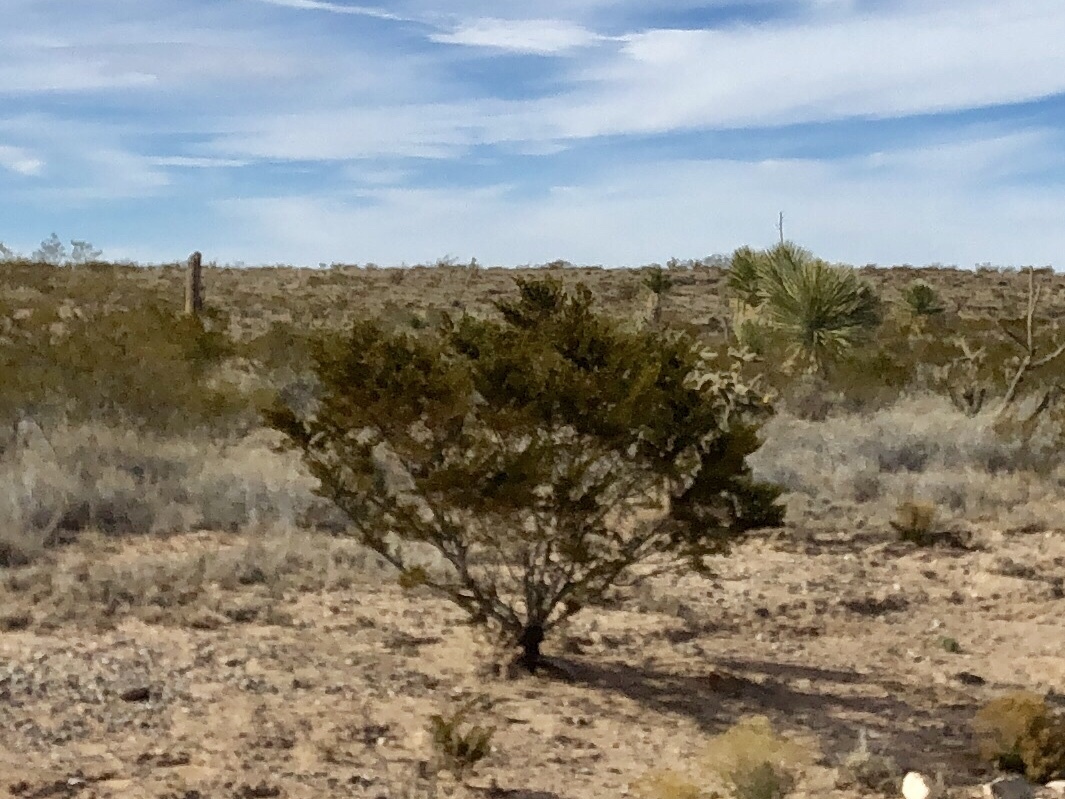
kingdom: Plantae
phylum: Tracheophyta
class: Magnoliopsida
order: Zygophyllales
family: Zygophyllaceae
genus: Larrea
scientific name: Larrea tridentata
